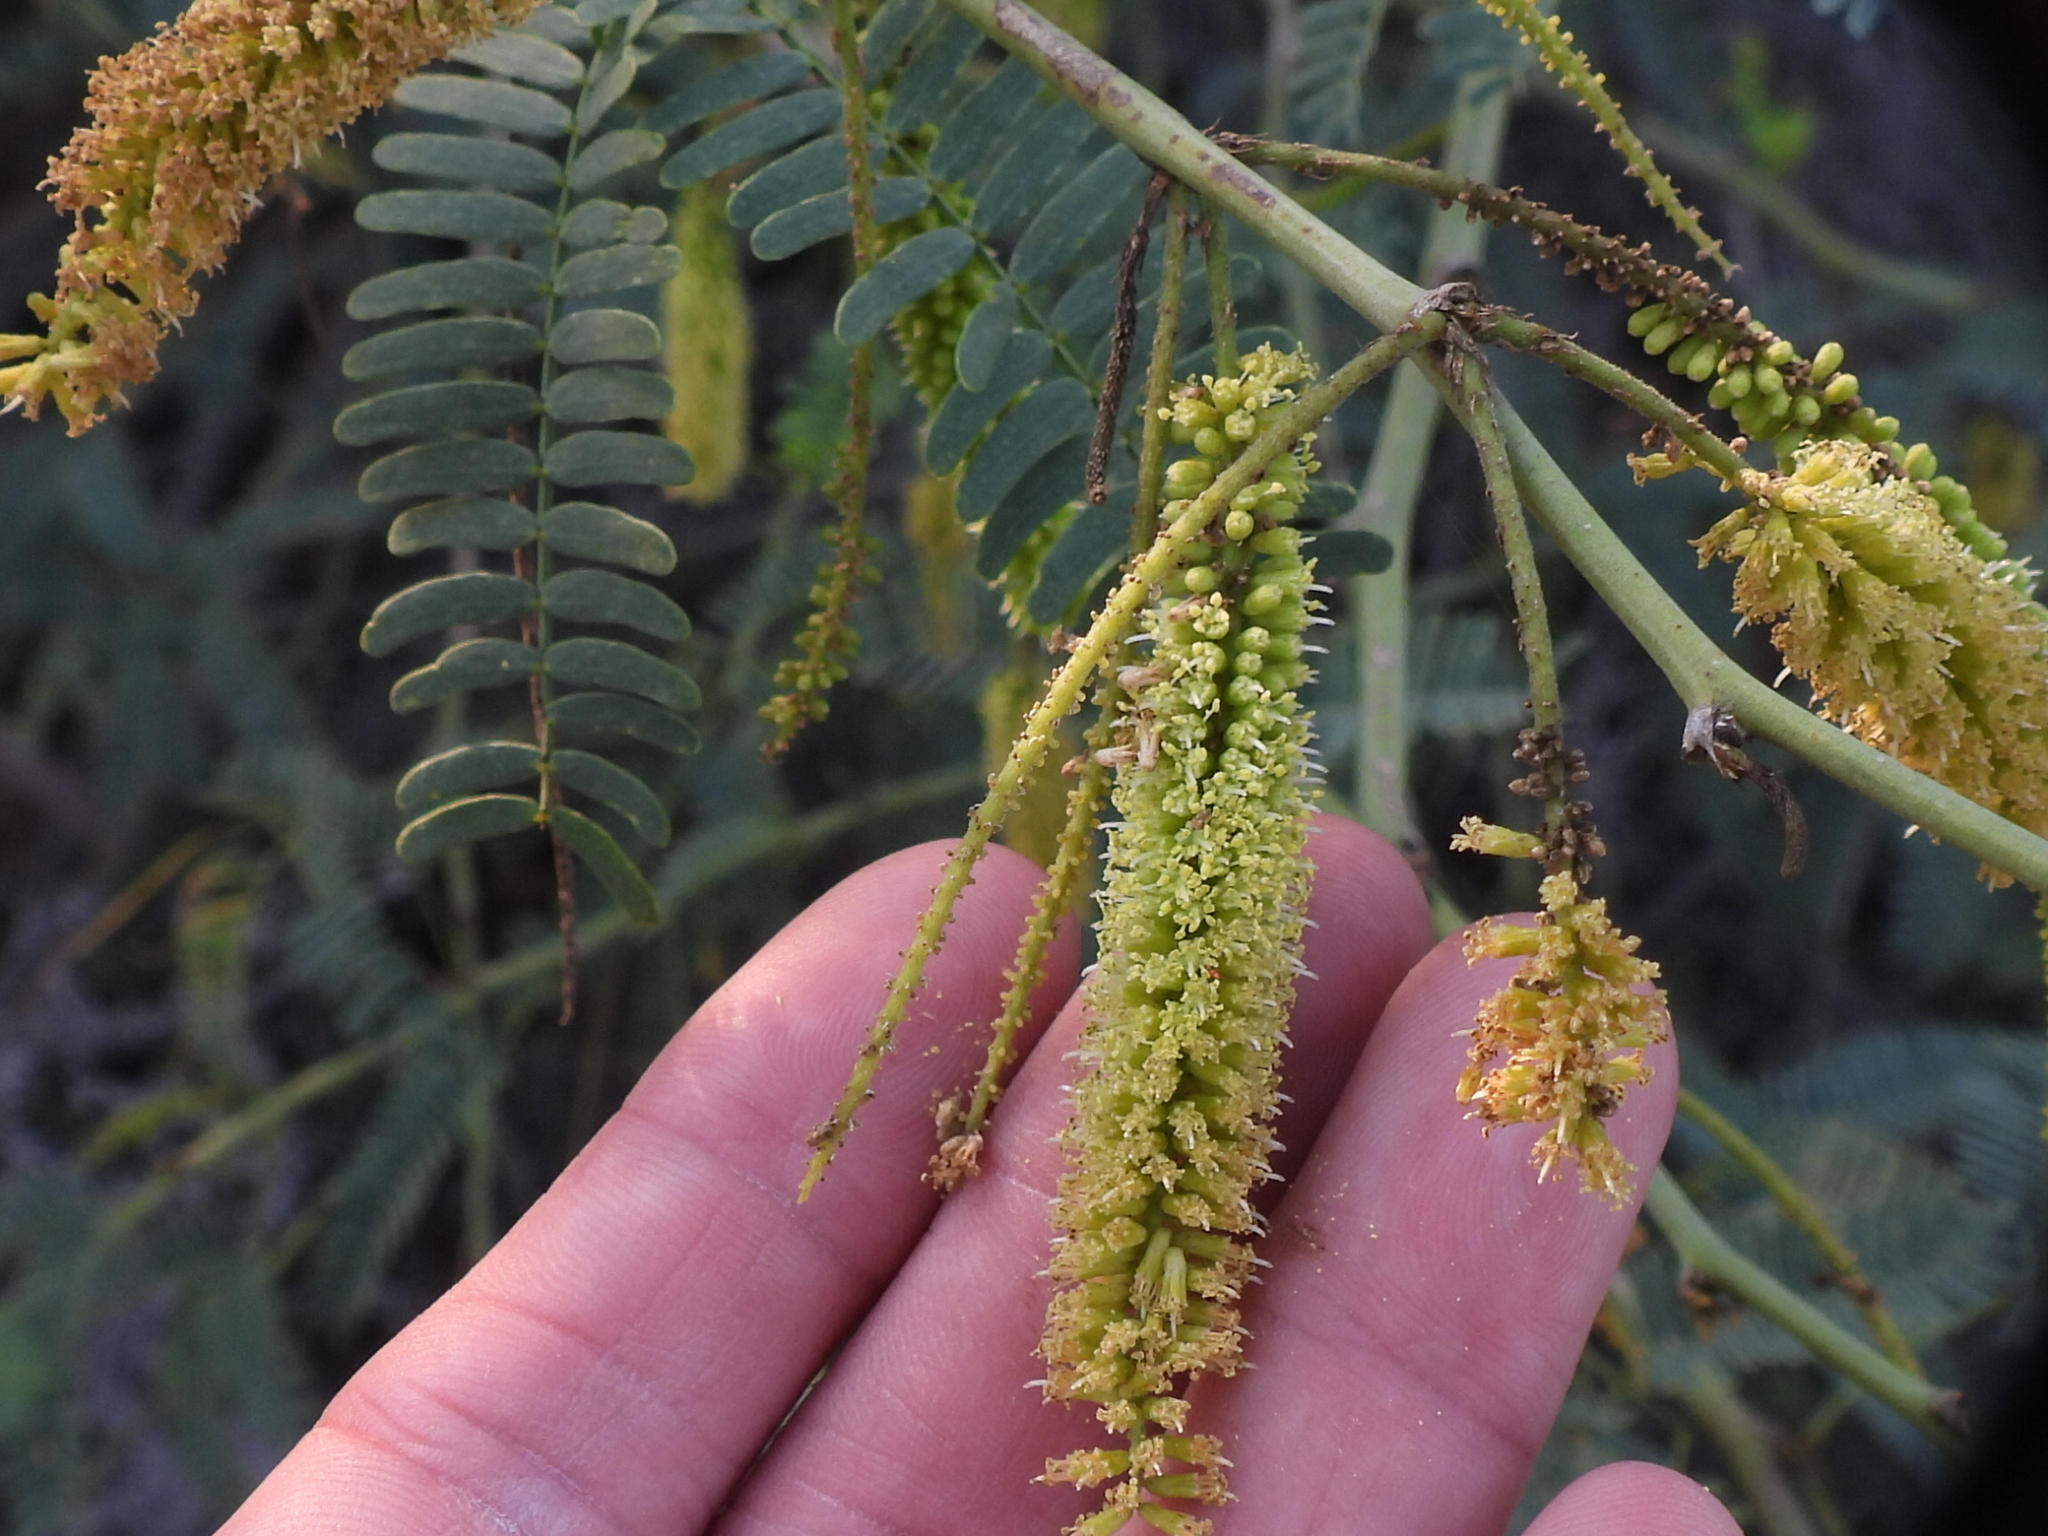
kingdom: Plantae
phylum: Tracheophyta
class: Magnoliopsida
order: Fabales
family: Fabaceae
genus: Prosopis
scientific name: Prosopis juliflora
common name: Mesquite
